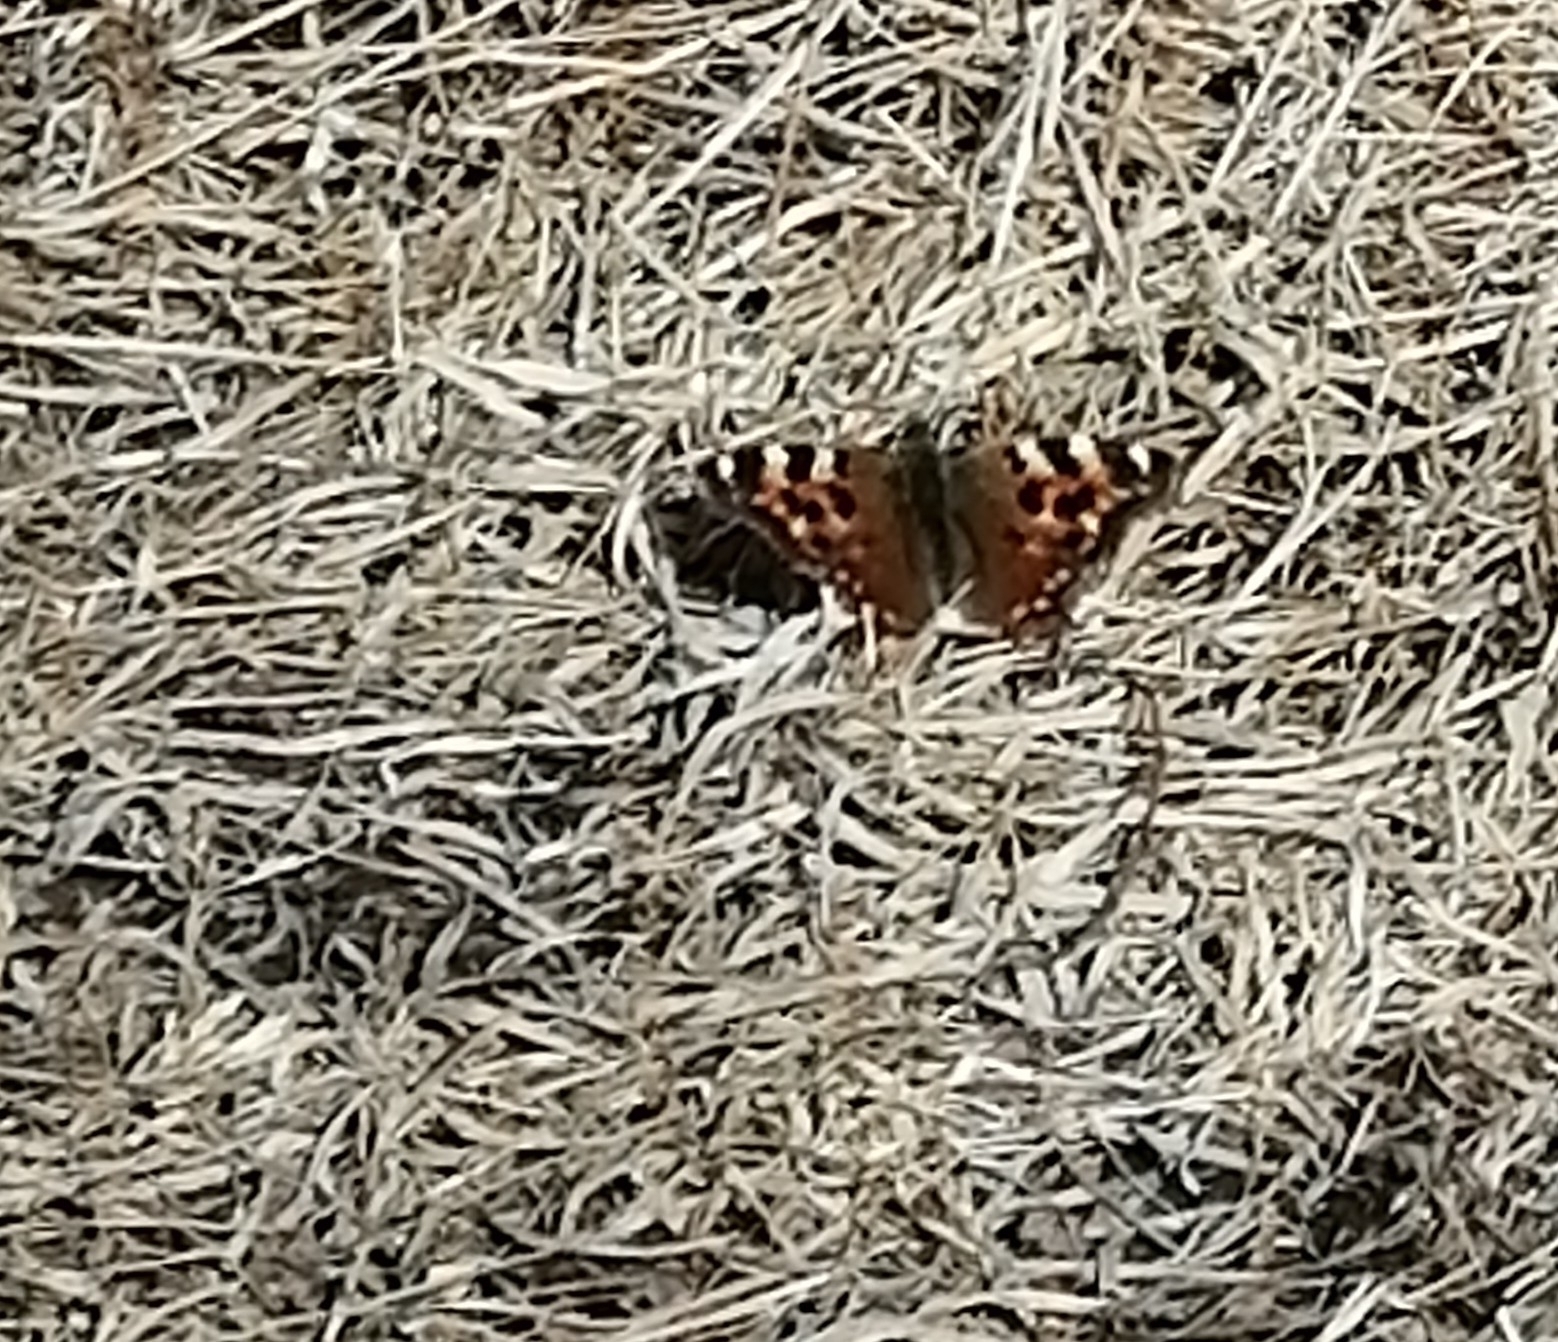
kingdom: Animalia
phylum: Arthropoda
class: Insecta
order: Lepidoptera
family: Nymphalidae
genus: Polygonia
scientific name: Polygonia vaualbum
